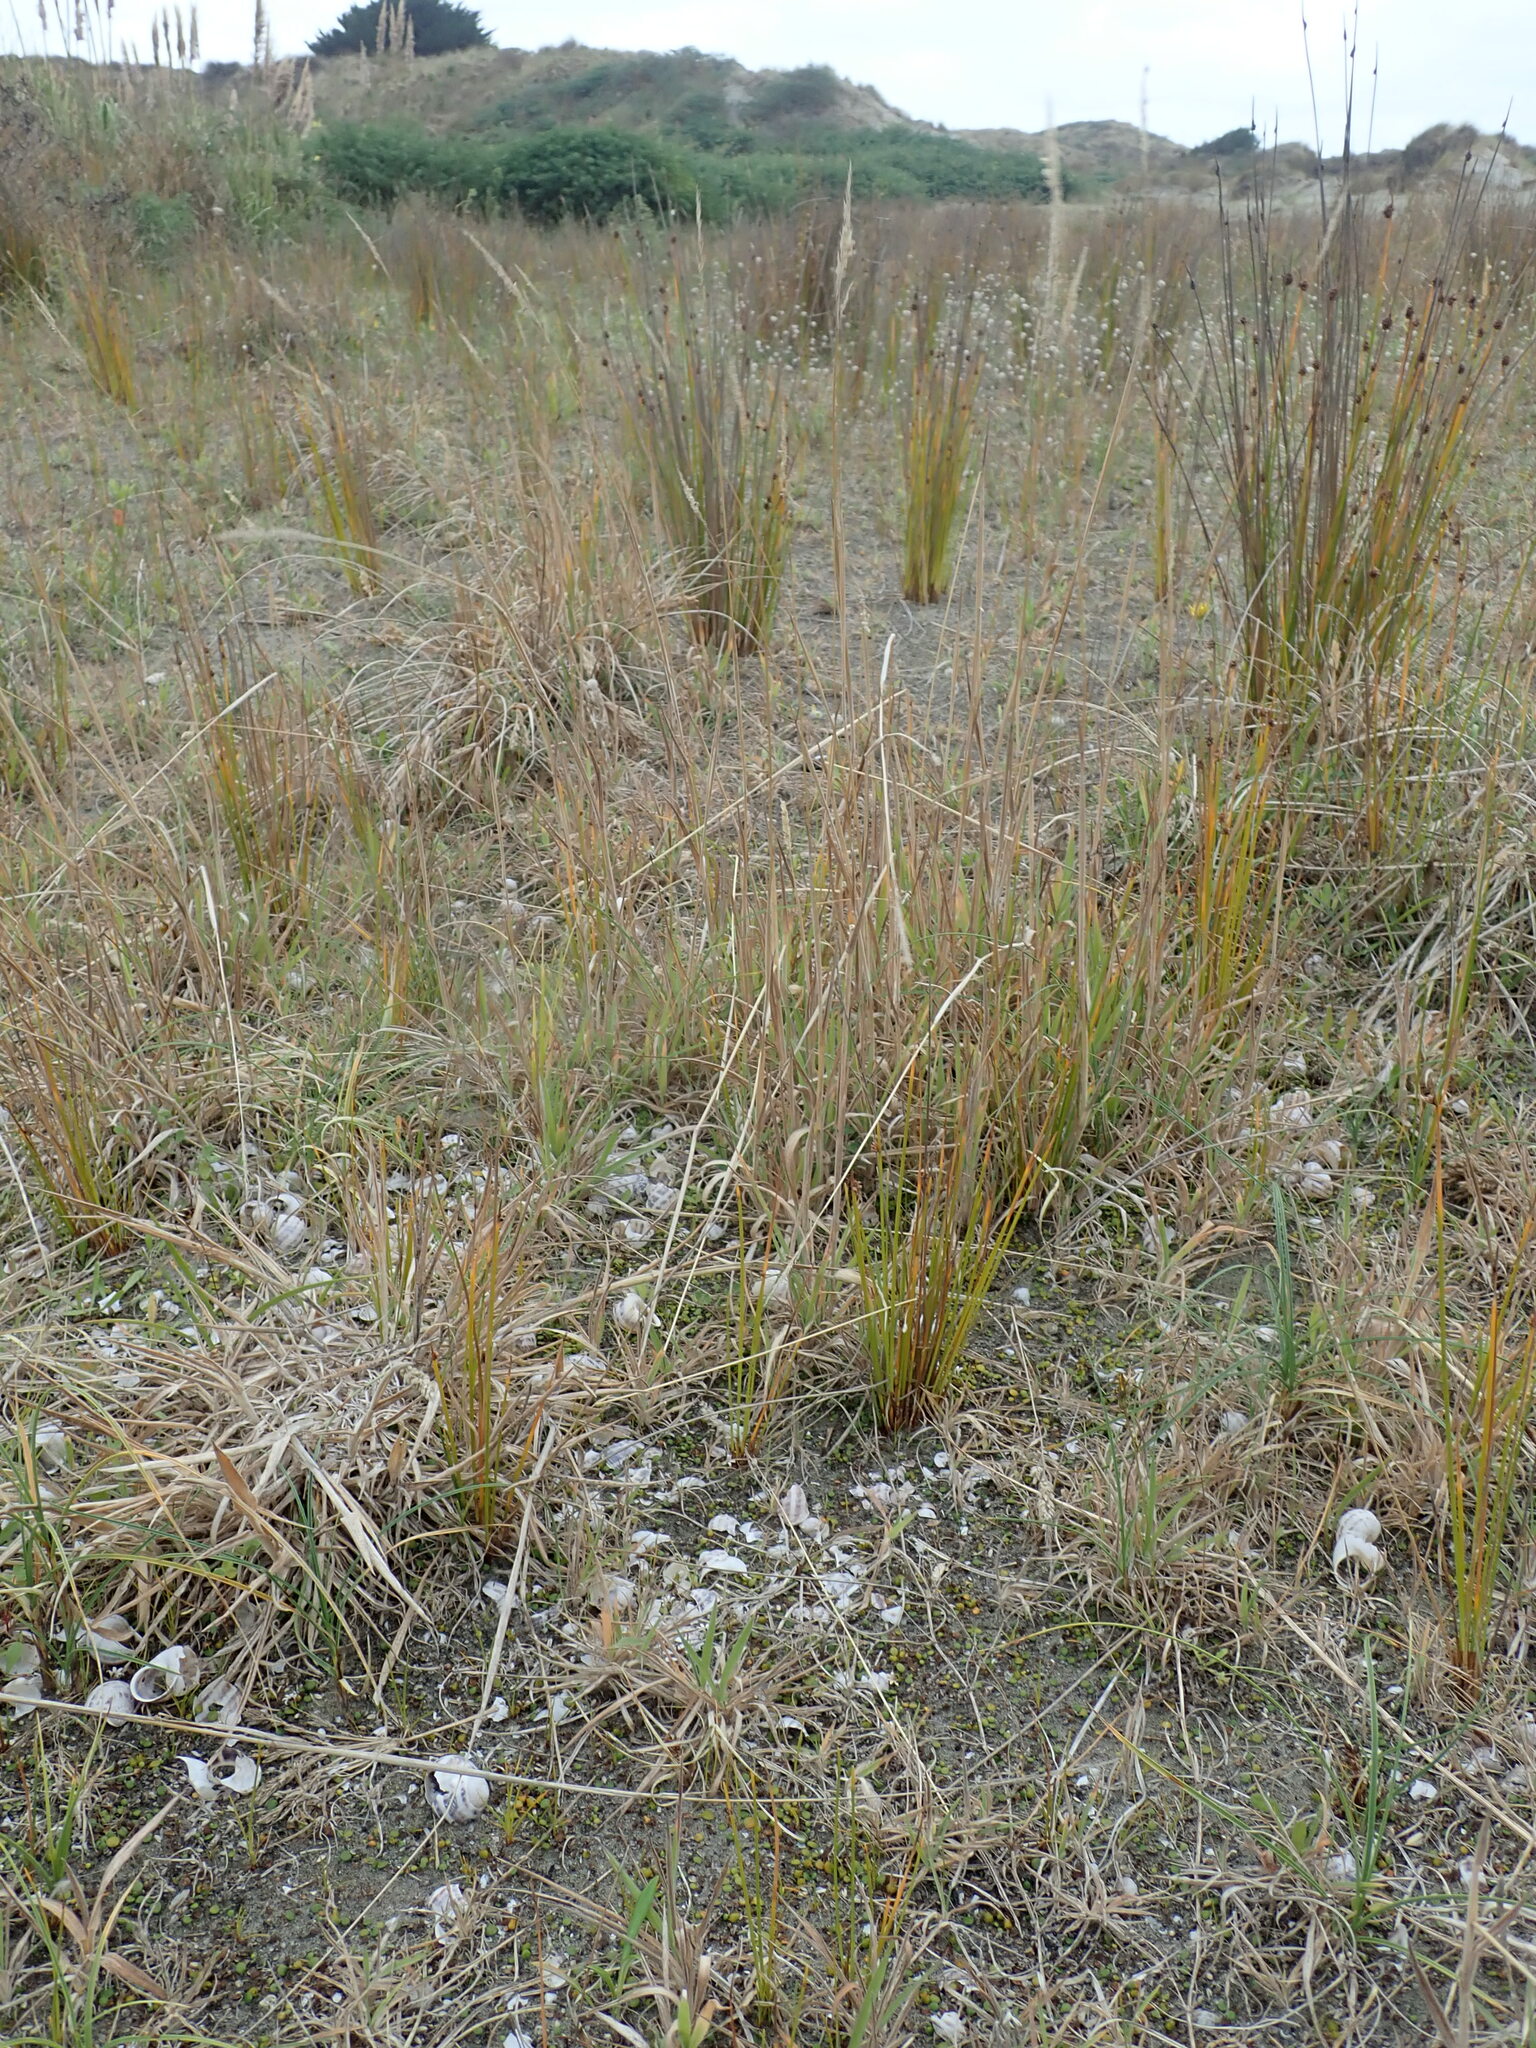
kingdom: Animalia
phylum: Mollusca
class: Gastropoda
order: Stylommatophora
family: Helicidae
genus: Cornu
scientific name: Cornu aspersum
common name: Brown garden snail
